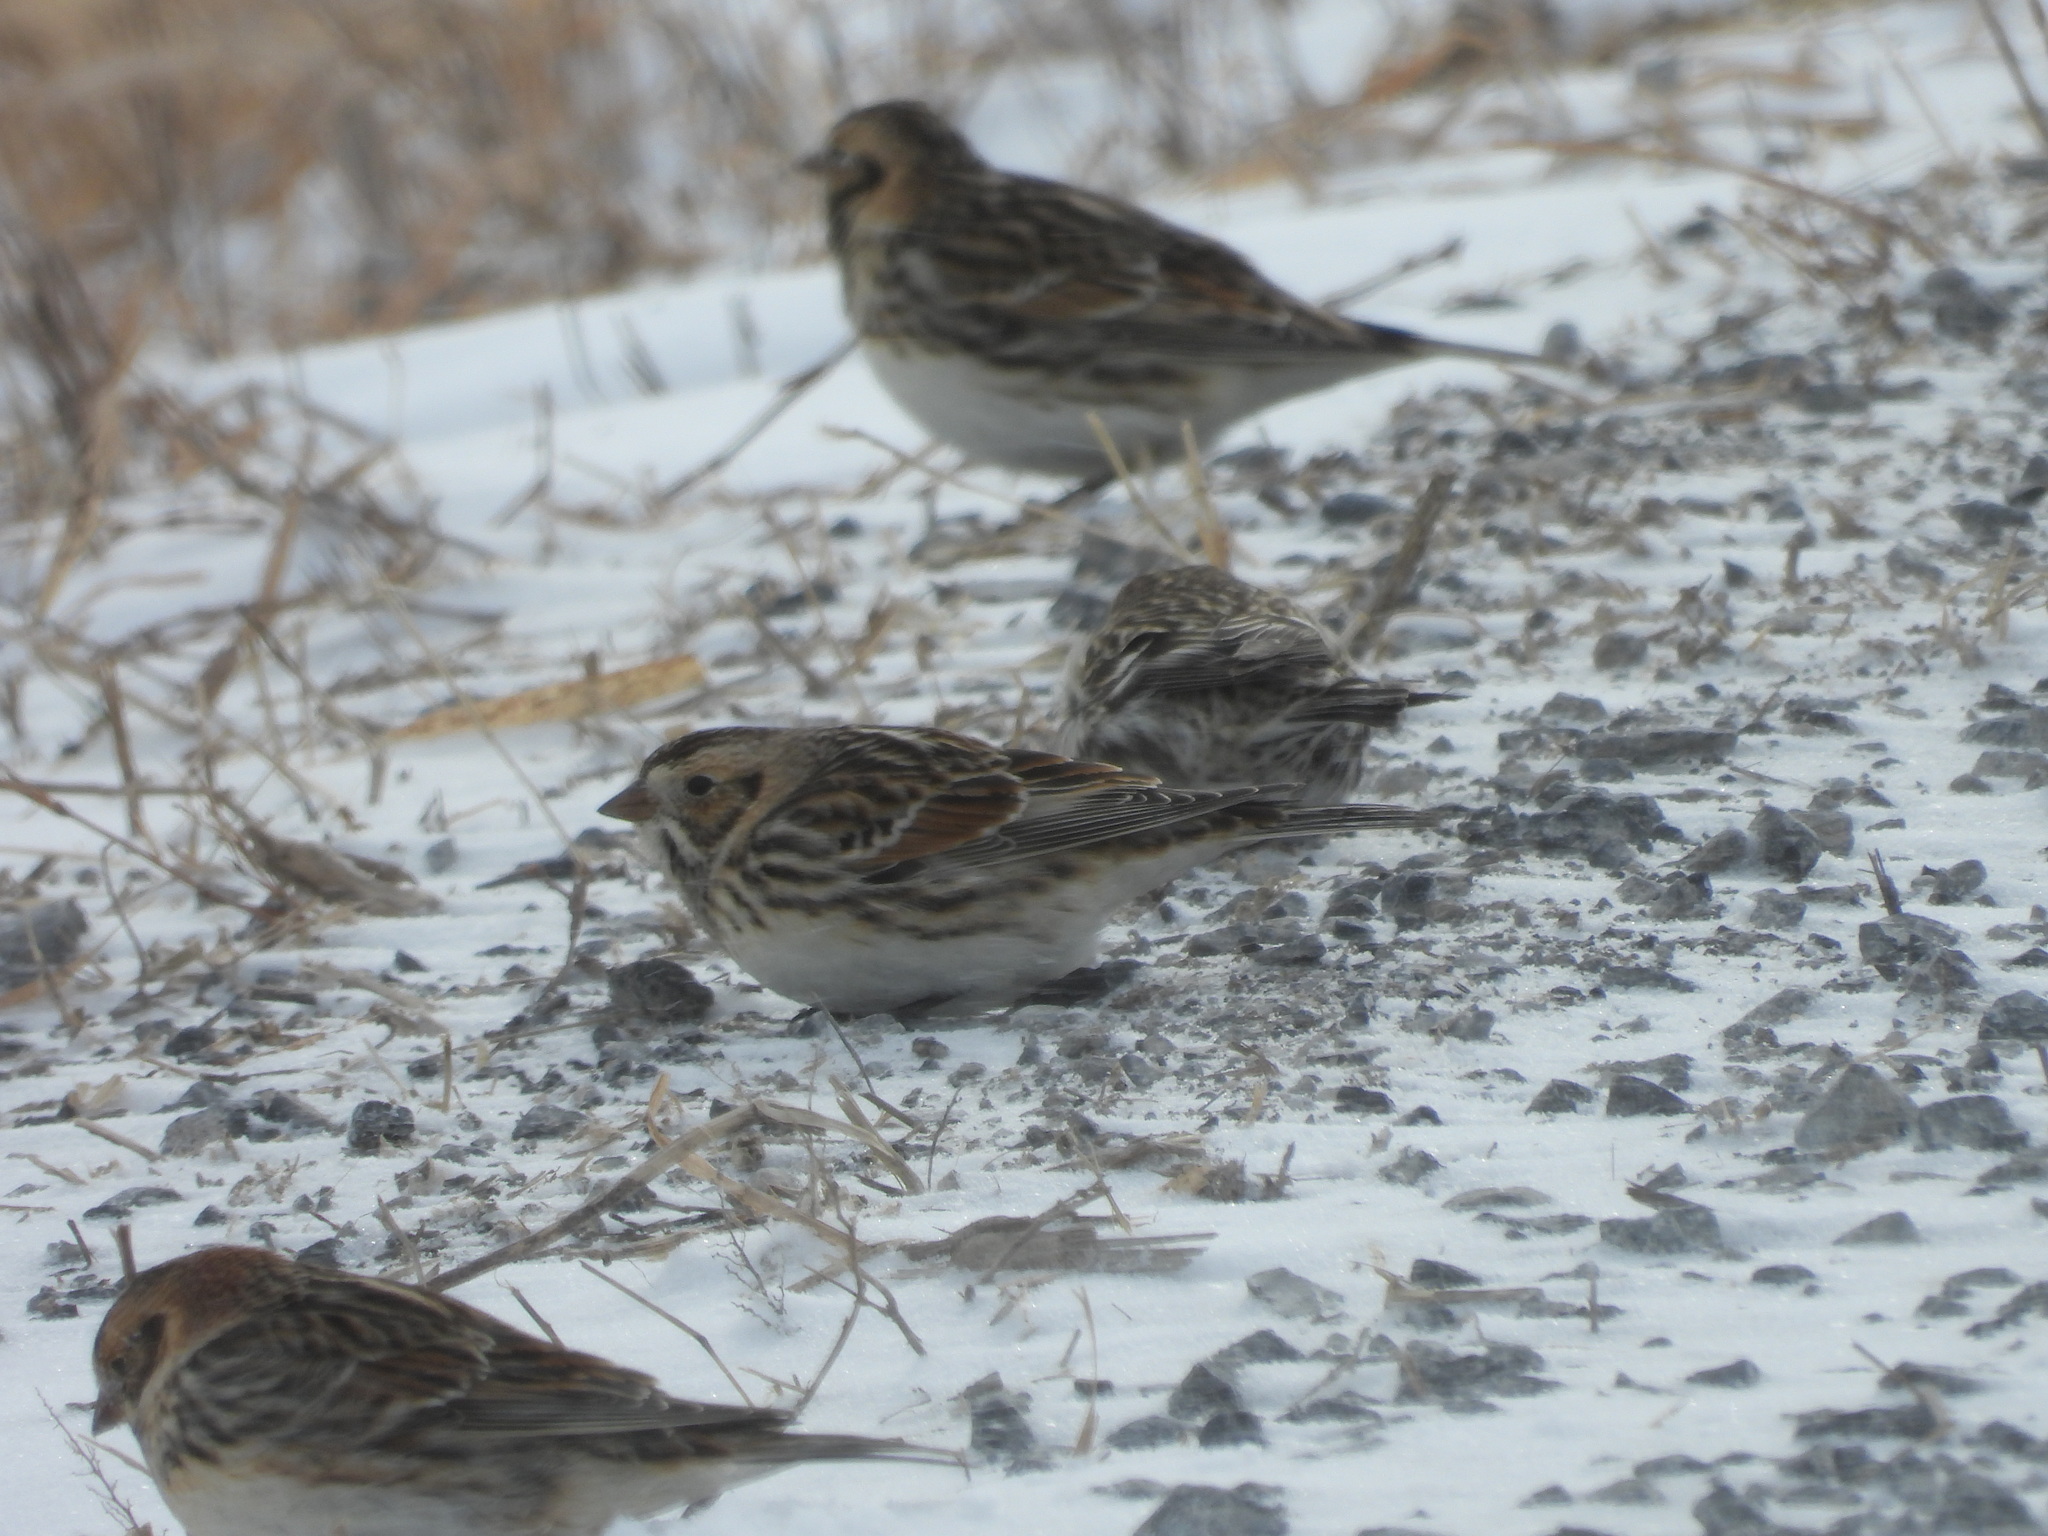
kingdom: Animalia
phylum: Chordata
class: Aves
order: Passeriformes
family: Calcariidae
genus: Calcarius
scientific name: Calcarius lapponicus
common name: Lapland longspur
